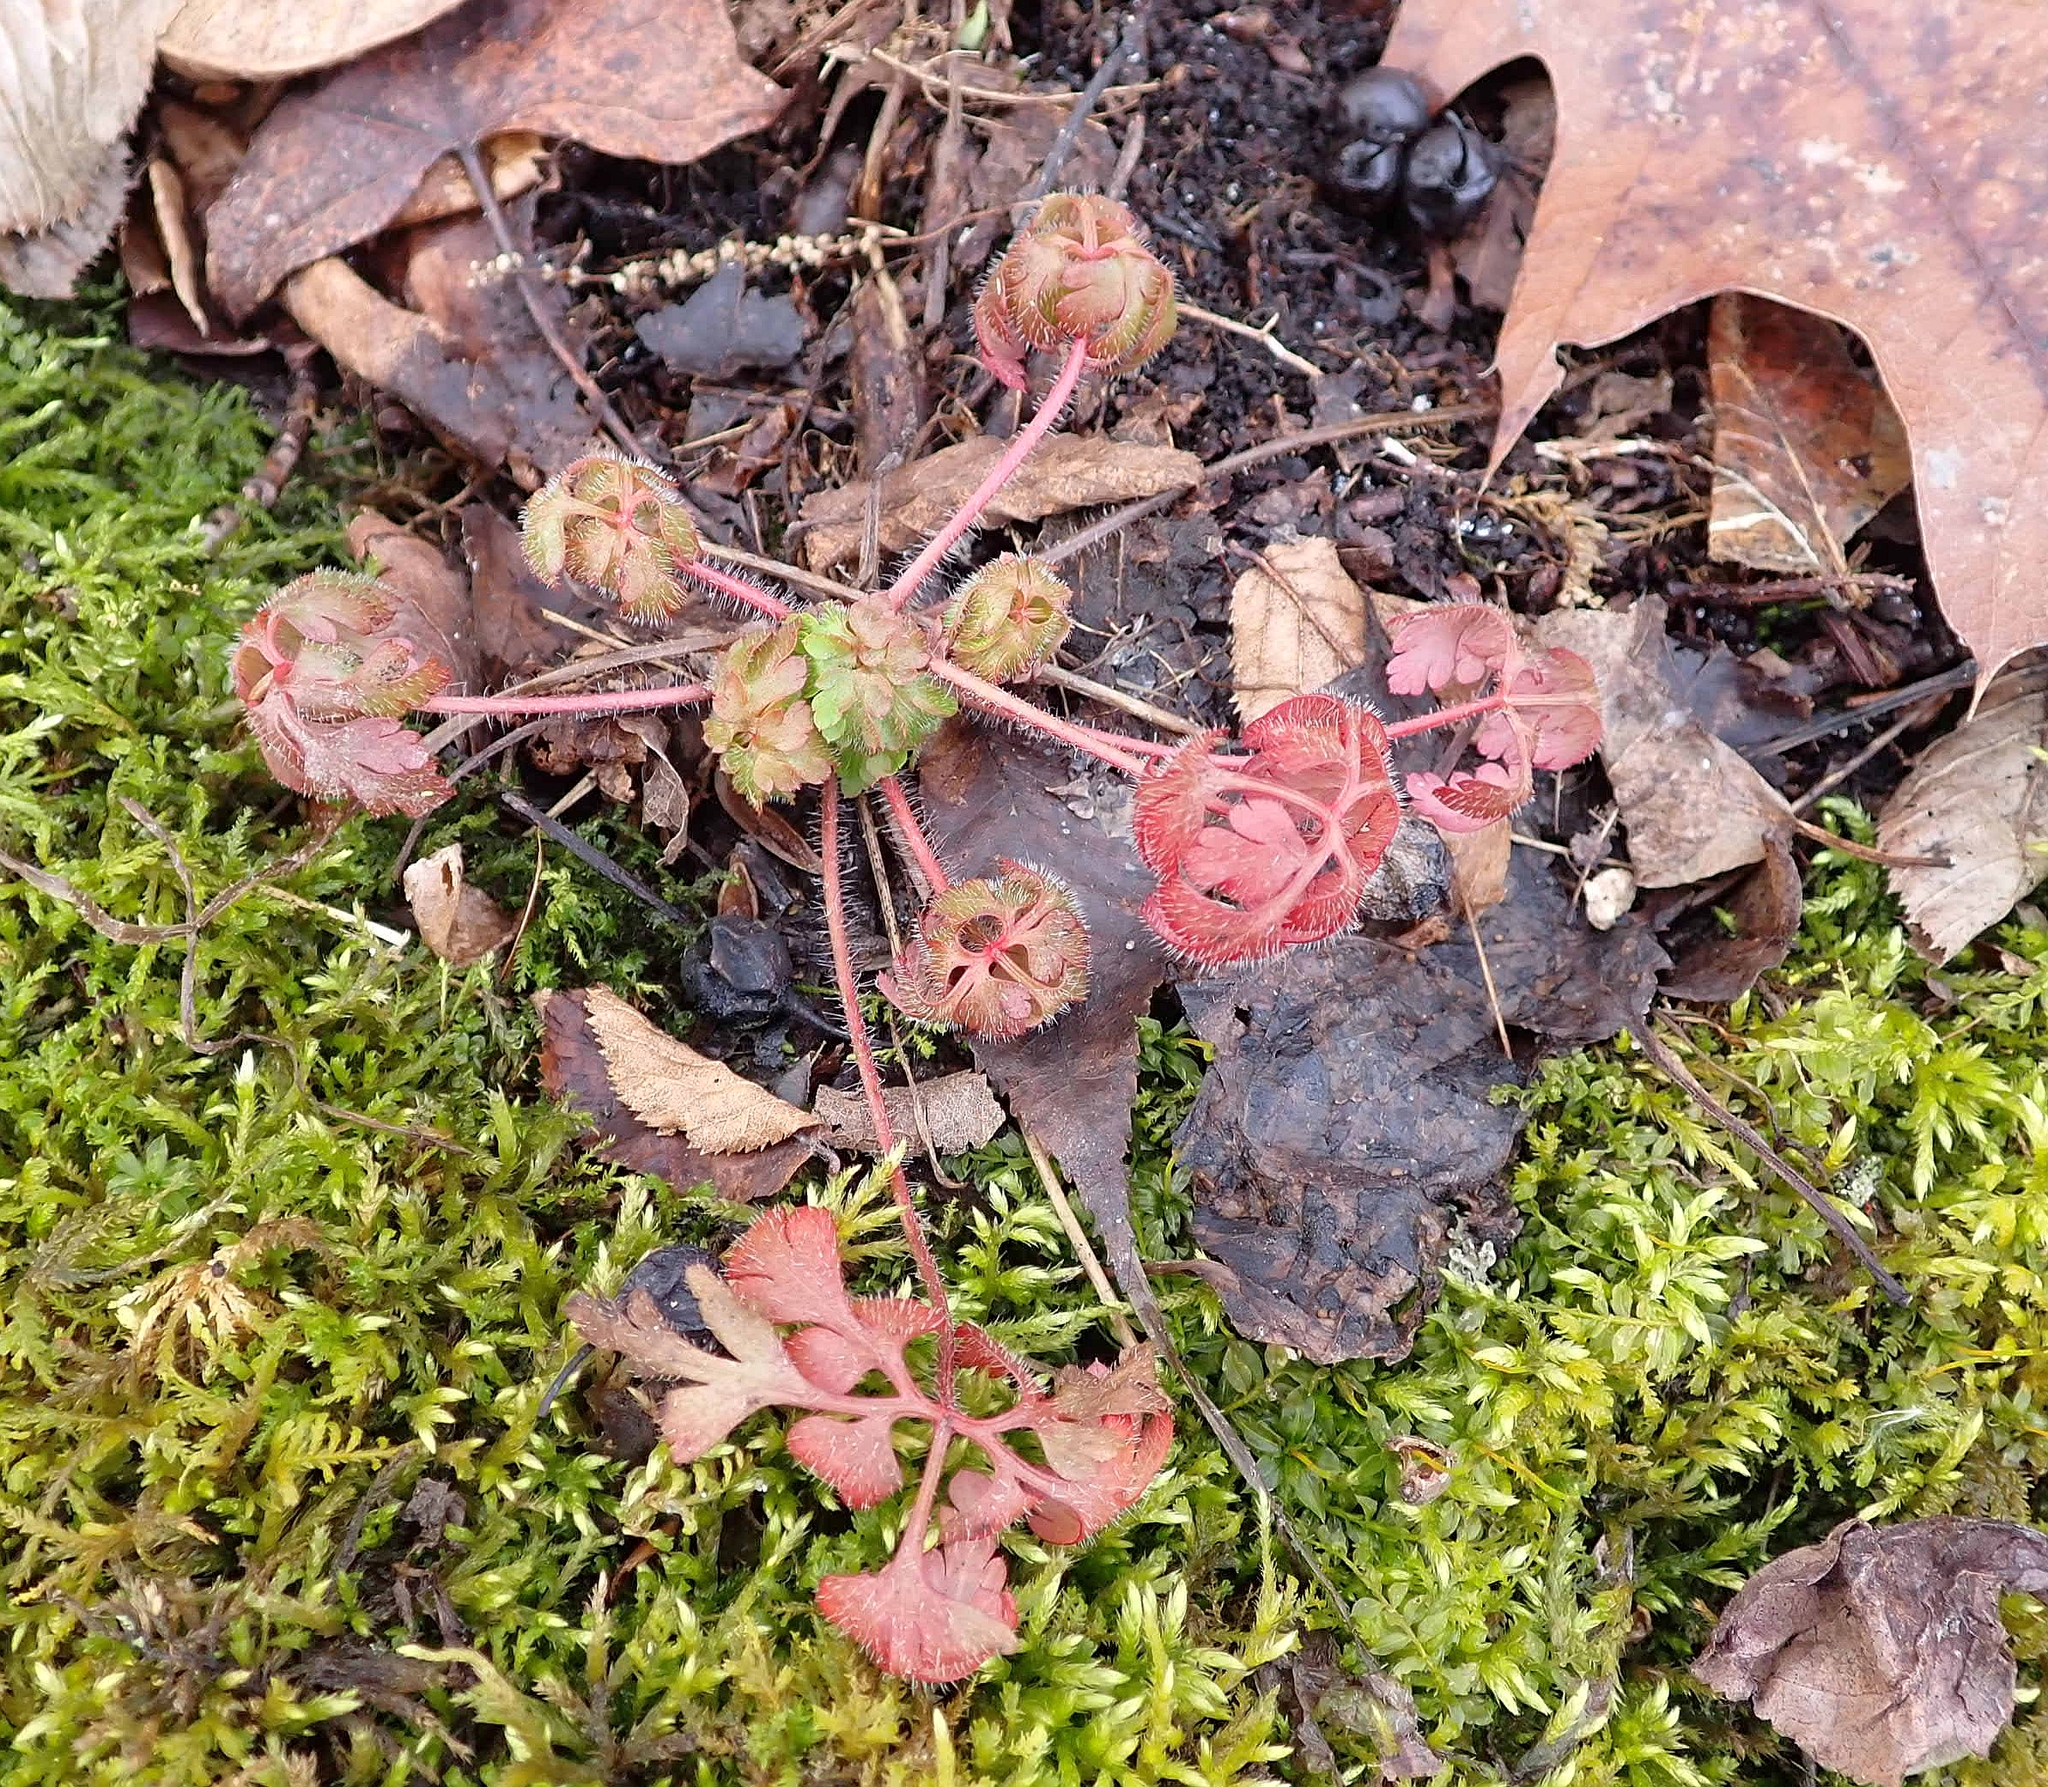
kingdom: Plantae
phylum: Tracheophyta
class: Magnoliopsida
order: Geraniales
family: Geraniaceae
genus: Geranium
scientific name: Geranium robertianum
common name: Herb-robert
